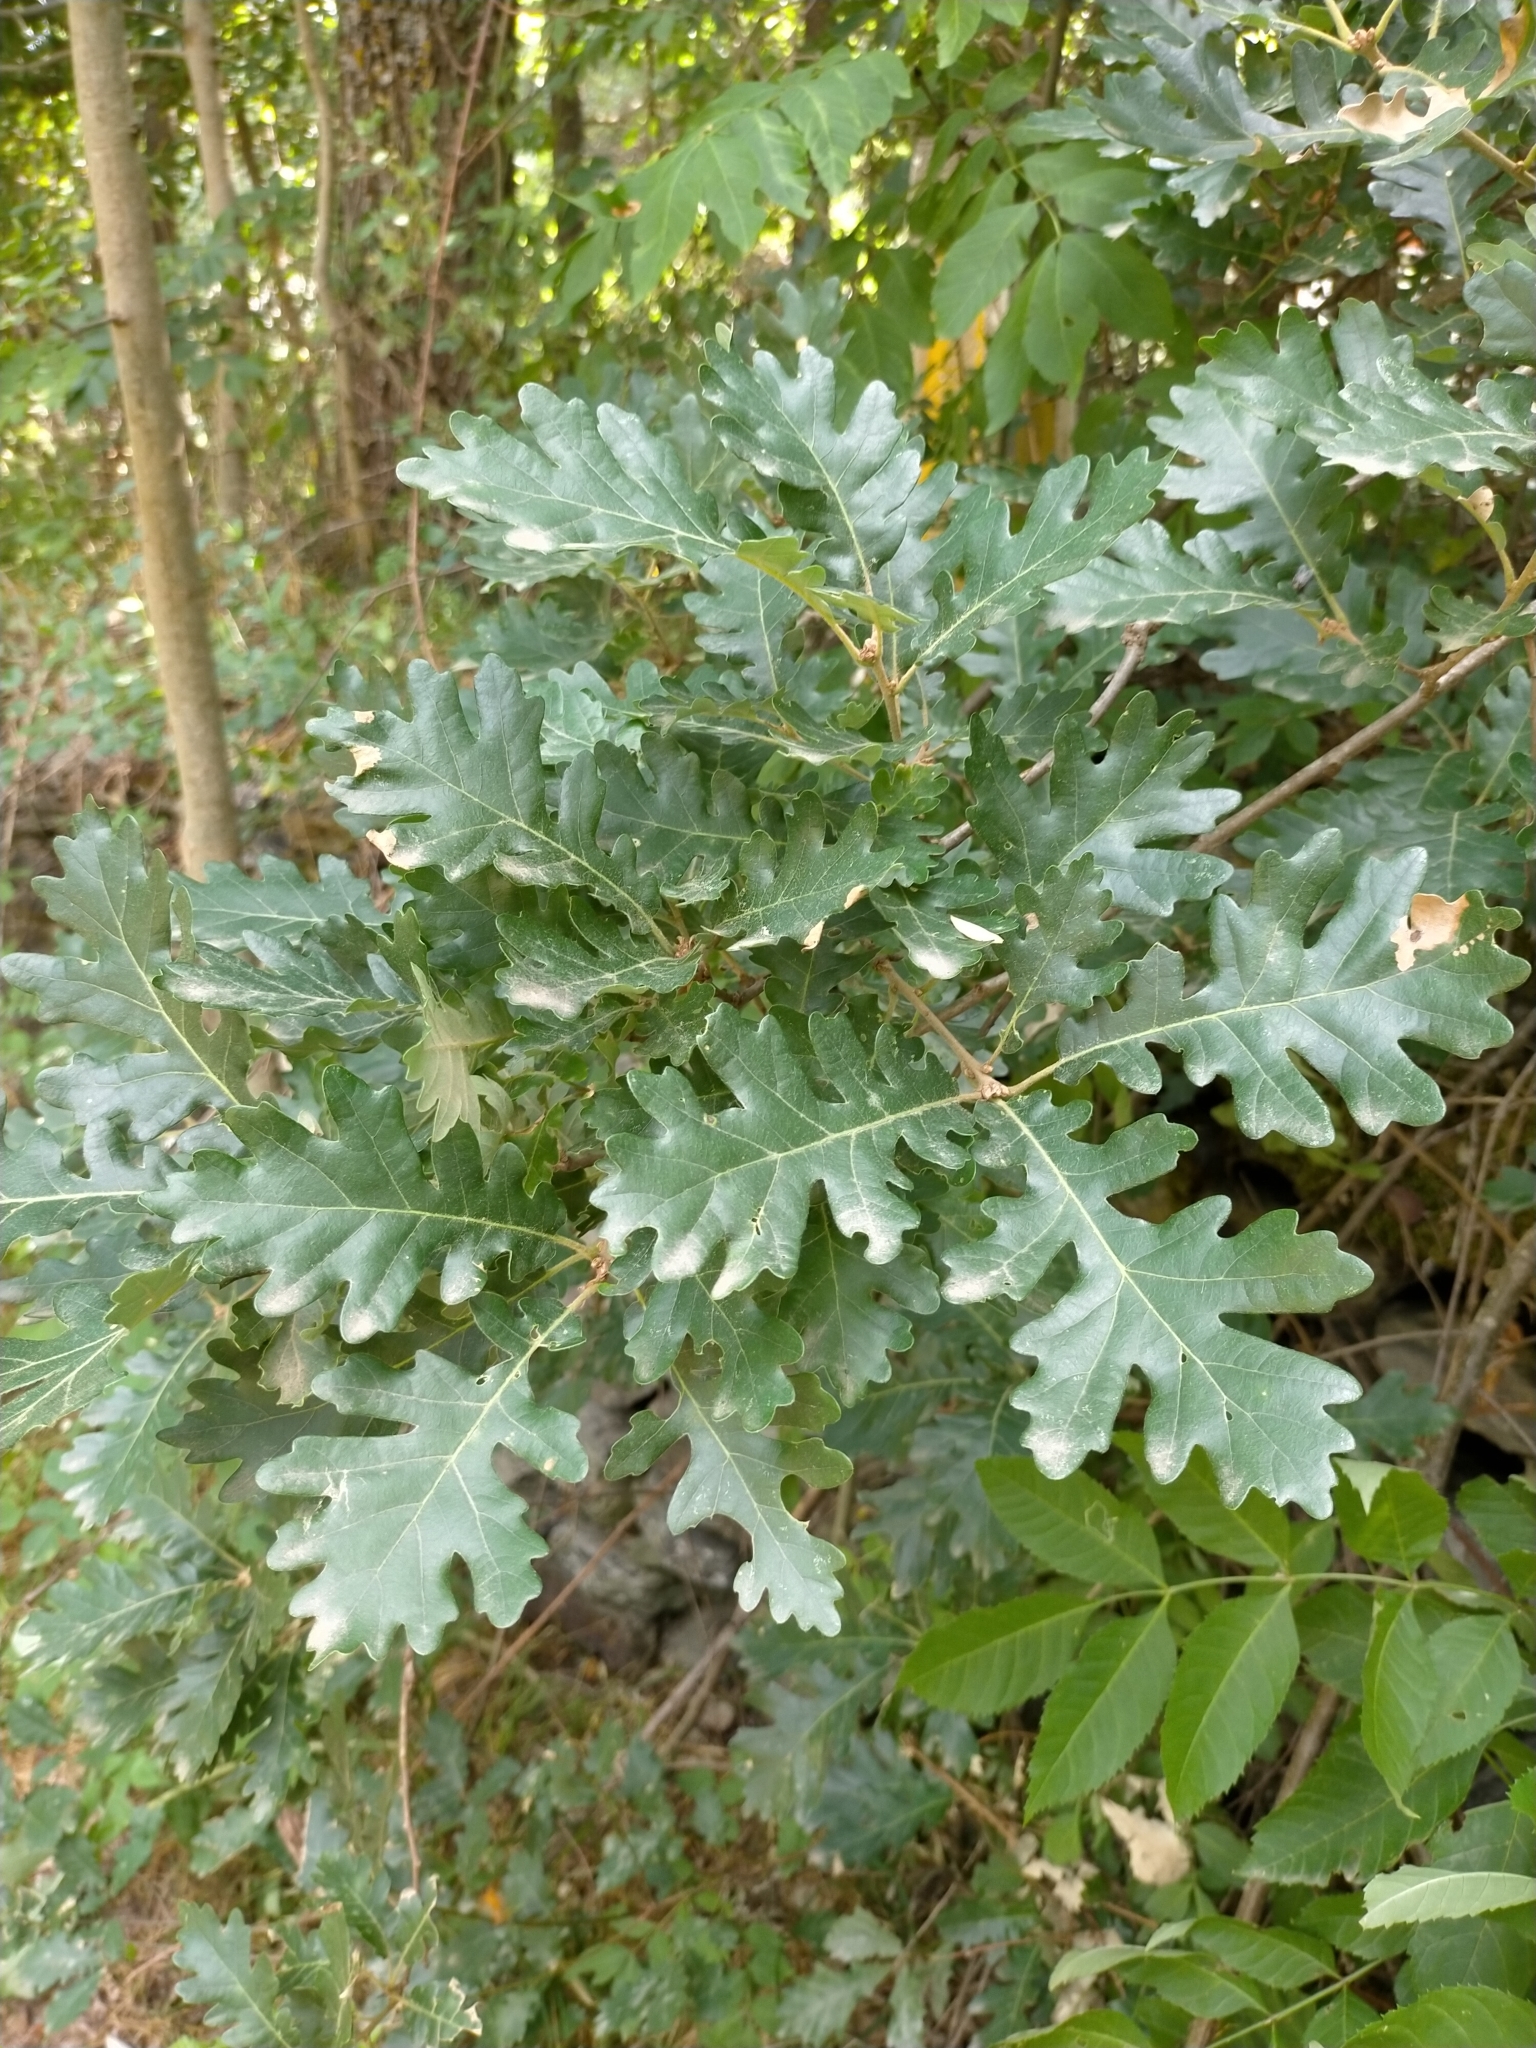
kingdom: Plantae
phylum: Tracheophyta
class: Magnoliopsida
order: Fagales
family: Fagaceae
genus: Quercus
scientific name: Quercus pubescens
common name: Downy oak
